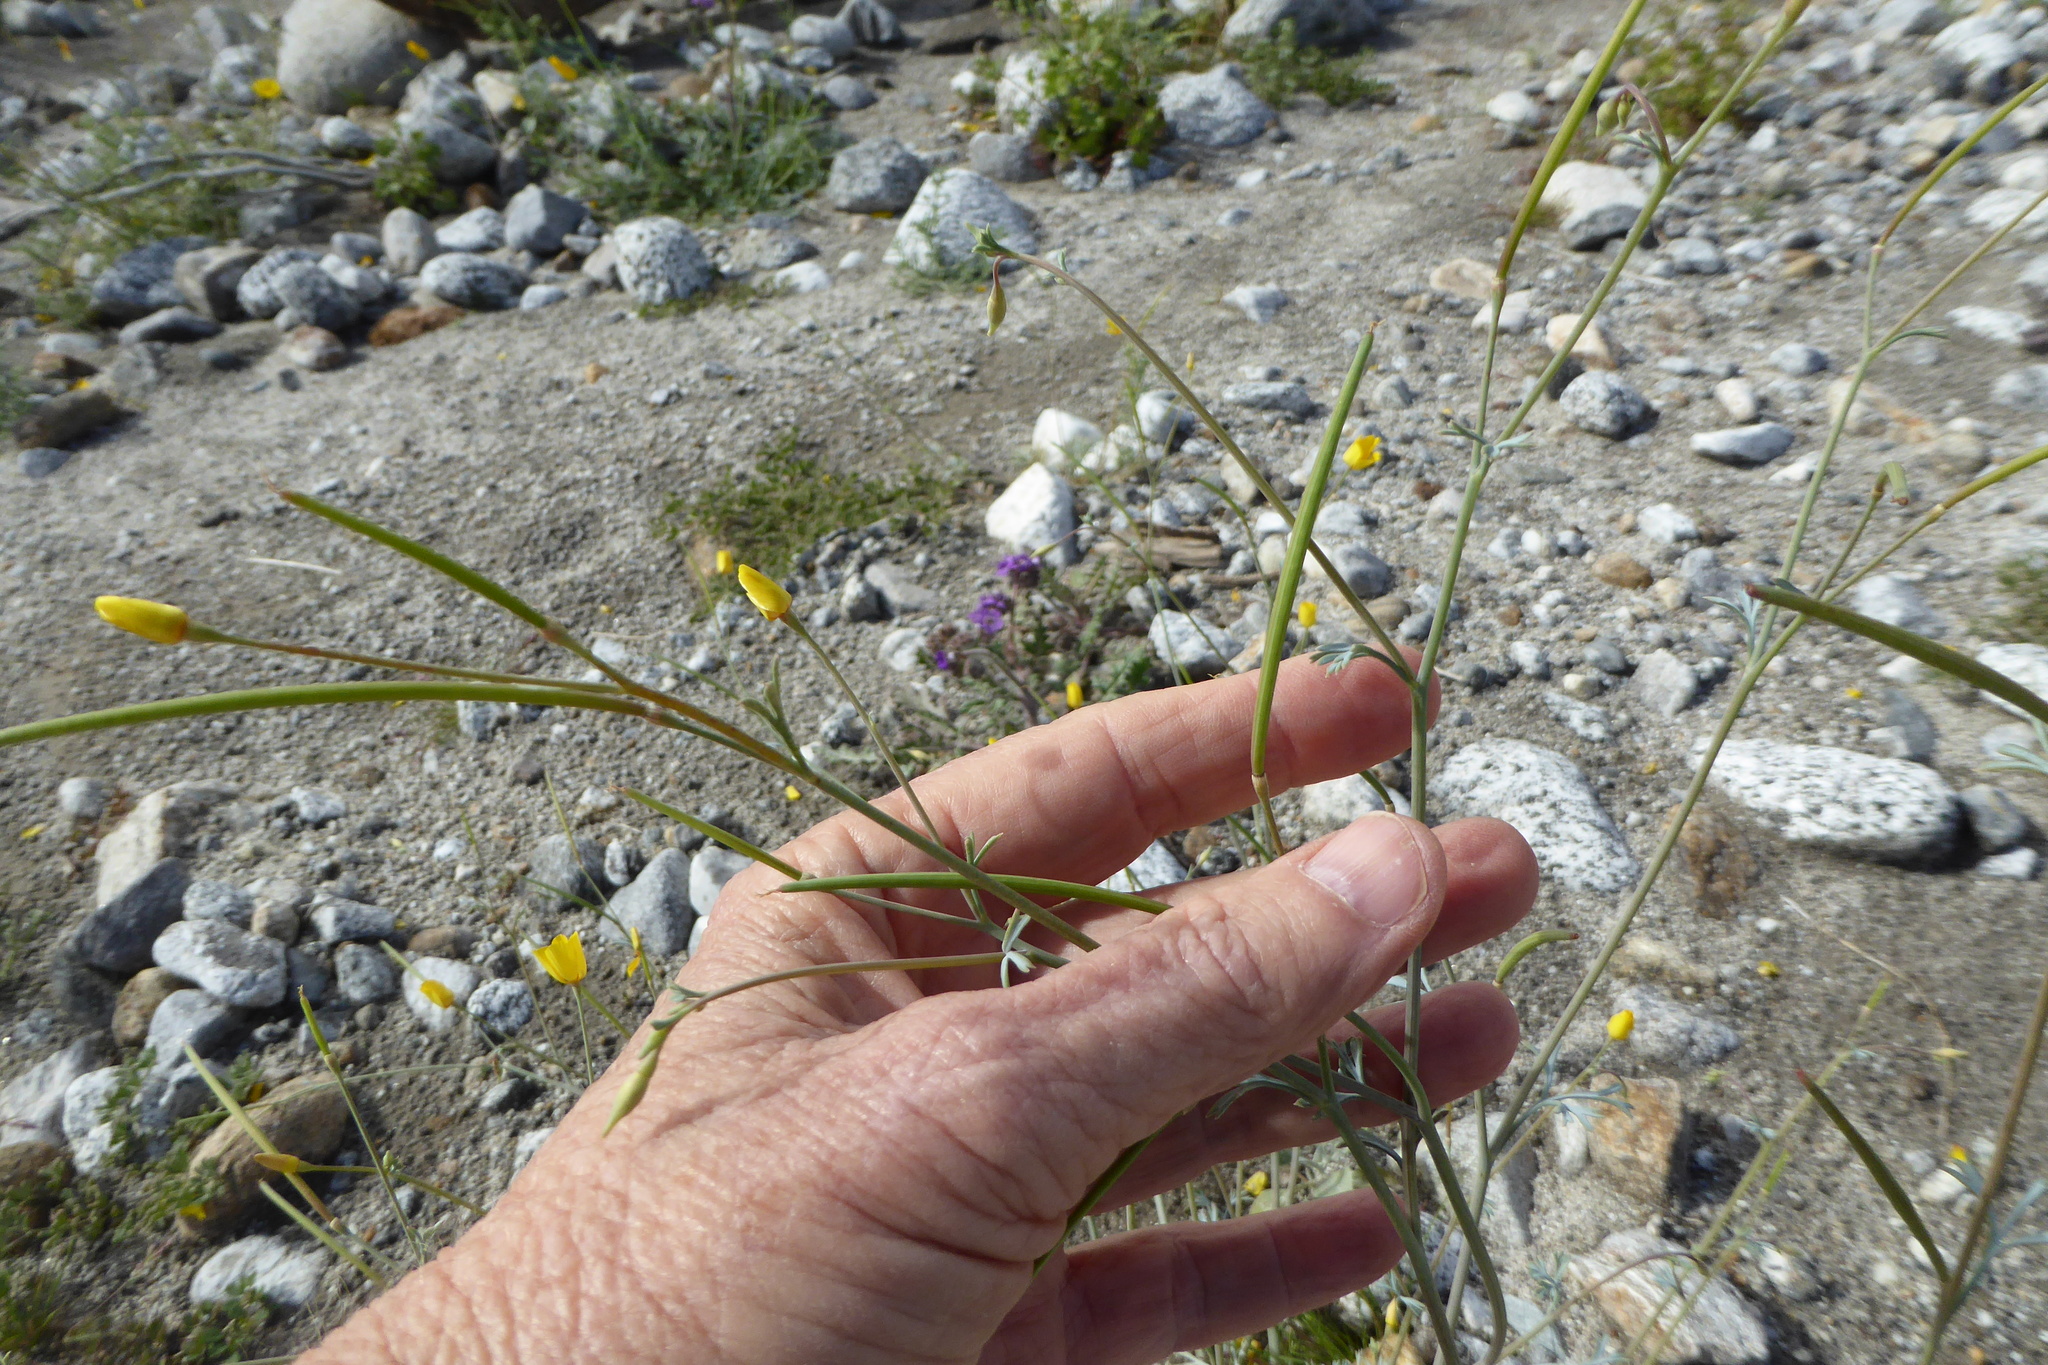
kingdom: Plantae
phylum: Tracheophyta
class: Magnoliopsida
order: Ranunculales
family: Papaveraceae
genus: Eschscholzia
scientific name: Eschscholzia minutiflora
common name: Small-flower california-poppy
